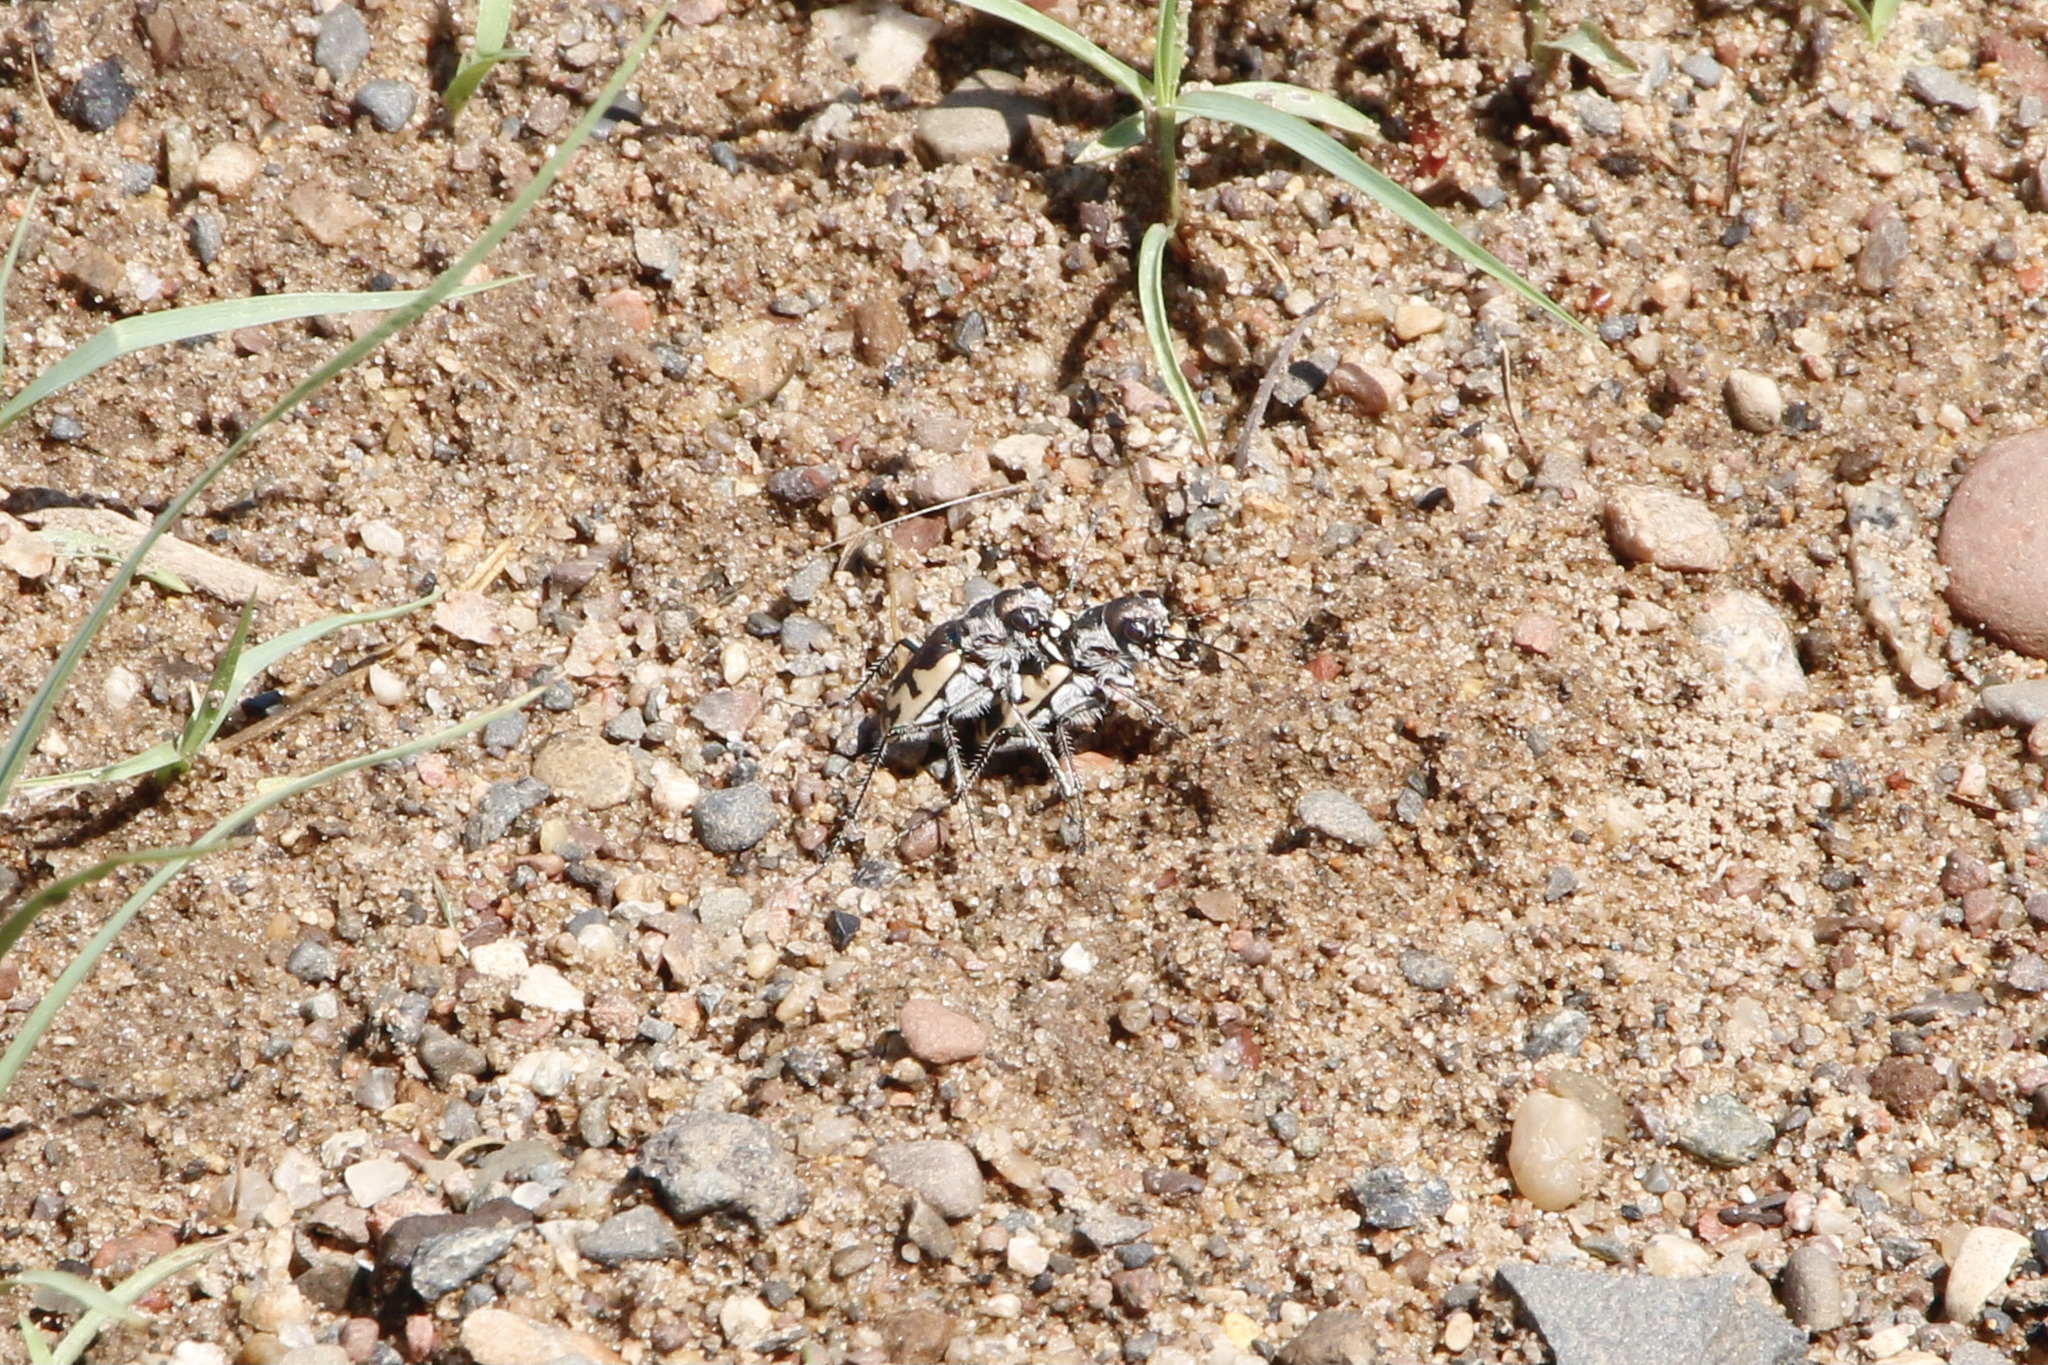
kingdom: Animalia
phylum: Arthropoda
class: Insecta
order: Coleoptera
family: Carabidae
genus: Cicindela
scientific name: Cicindela formosa
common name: Big sand tiger beetle
